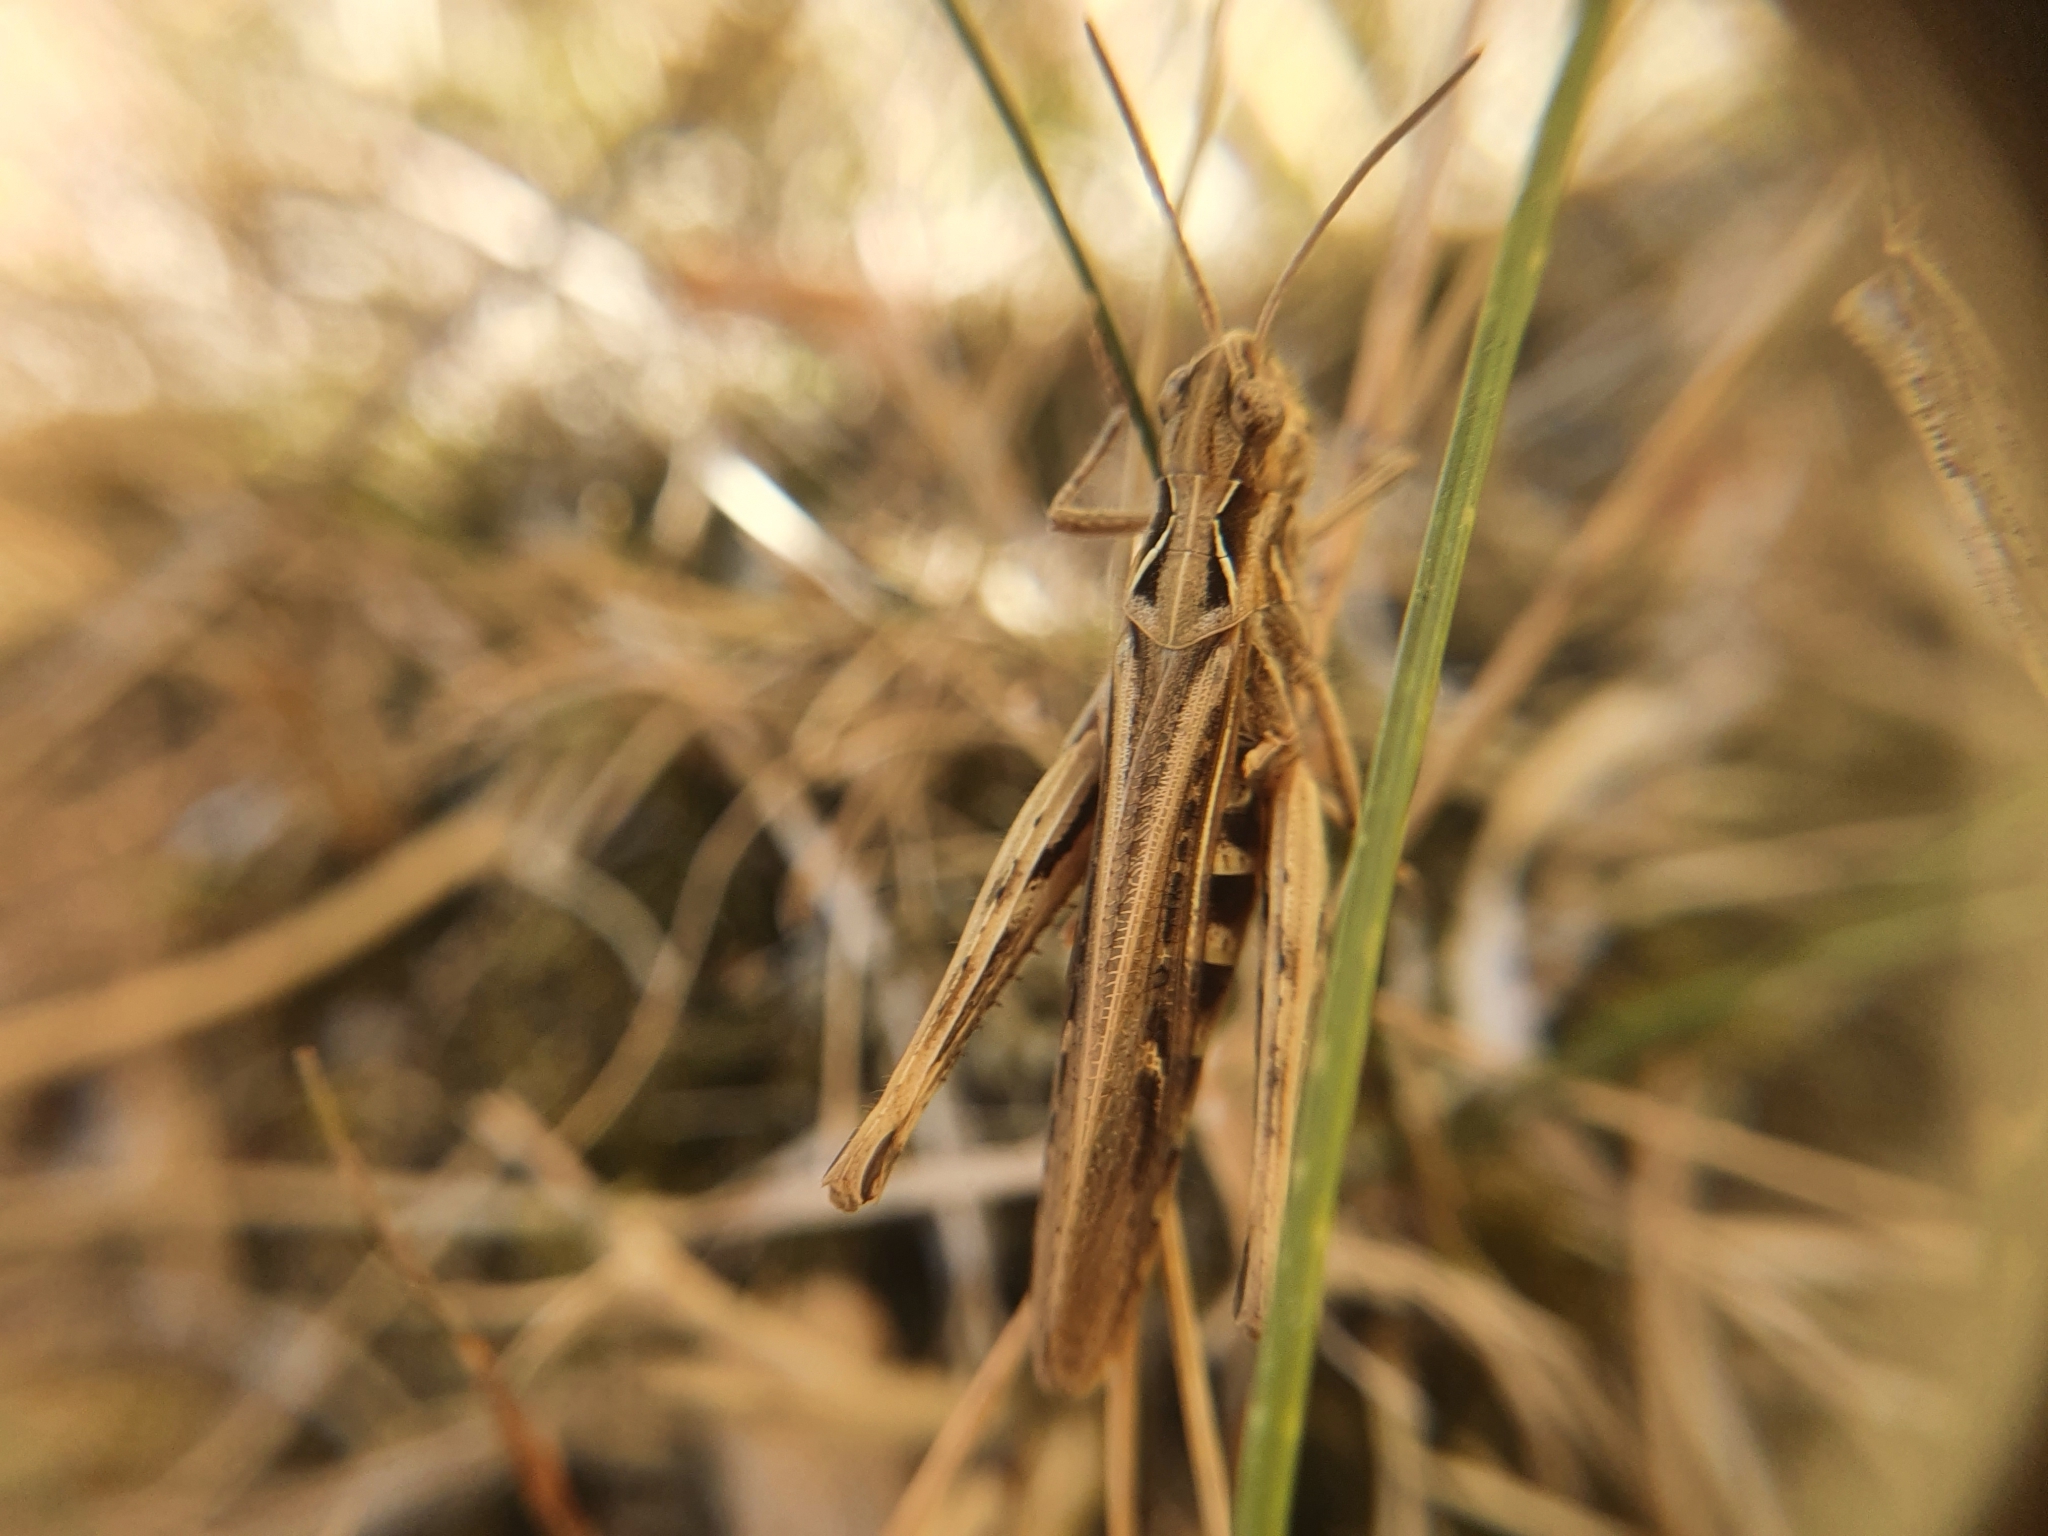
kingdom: Animalia
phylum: Arthropoda
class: Insecta
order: Orthoptera
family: Acrididae
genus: Chorthippus
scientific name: Chorthippus brunneus
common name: Field grasshopper
